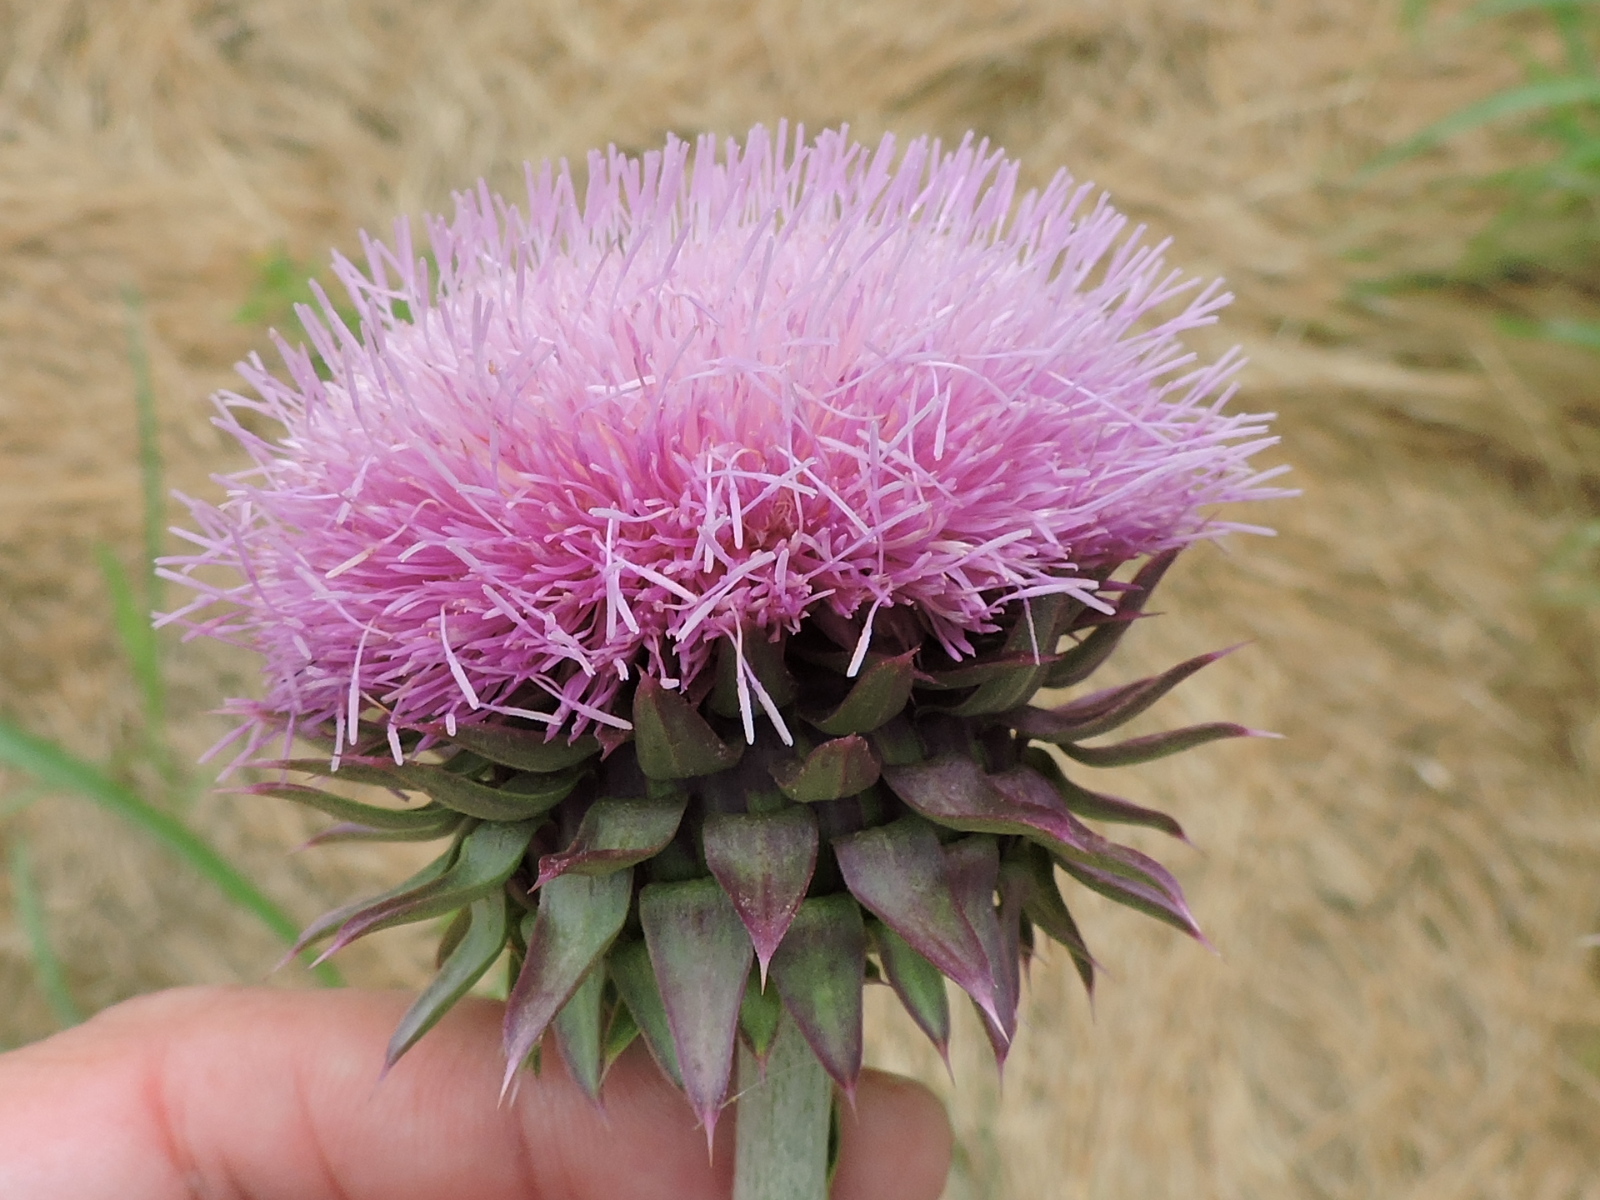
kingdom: Plantae
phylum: Tracheophyta
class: Magnoliopsida
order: Asterales
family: Asteraceae
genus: Carduus
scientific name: Carduus nutans
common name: Musk thistle
